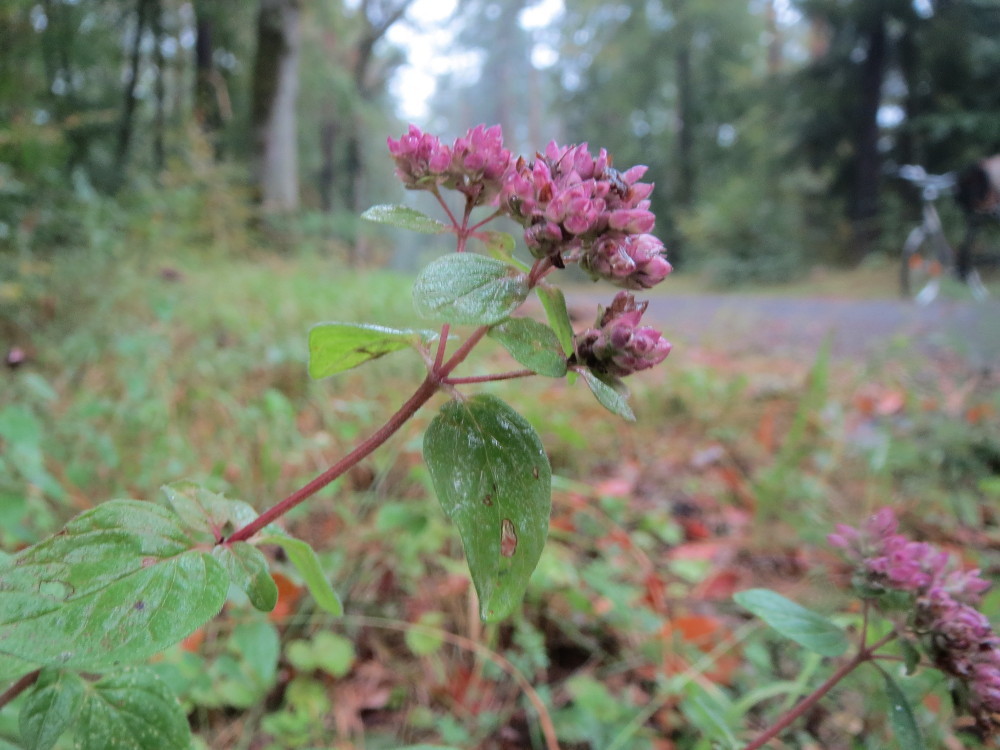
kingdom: Plantae
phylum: Tracheophyta
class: Magnoliopsida
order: Lamiales
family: Lamiaceae
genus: Origanum
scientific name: Origanum vulgare
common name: Wild marjoram
